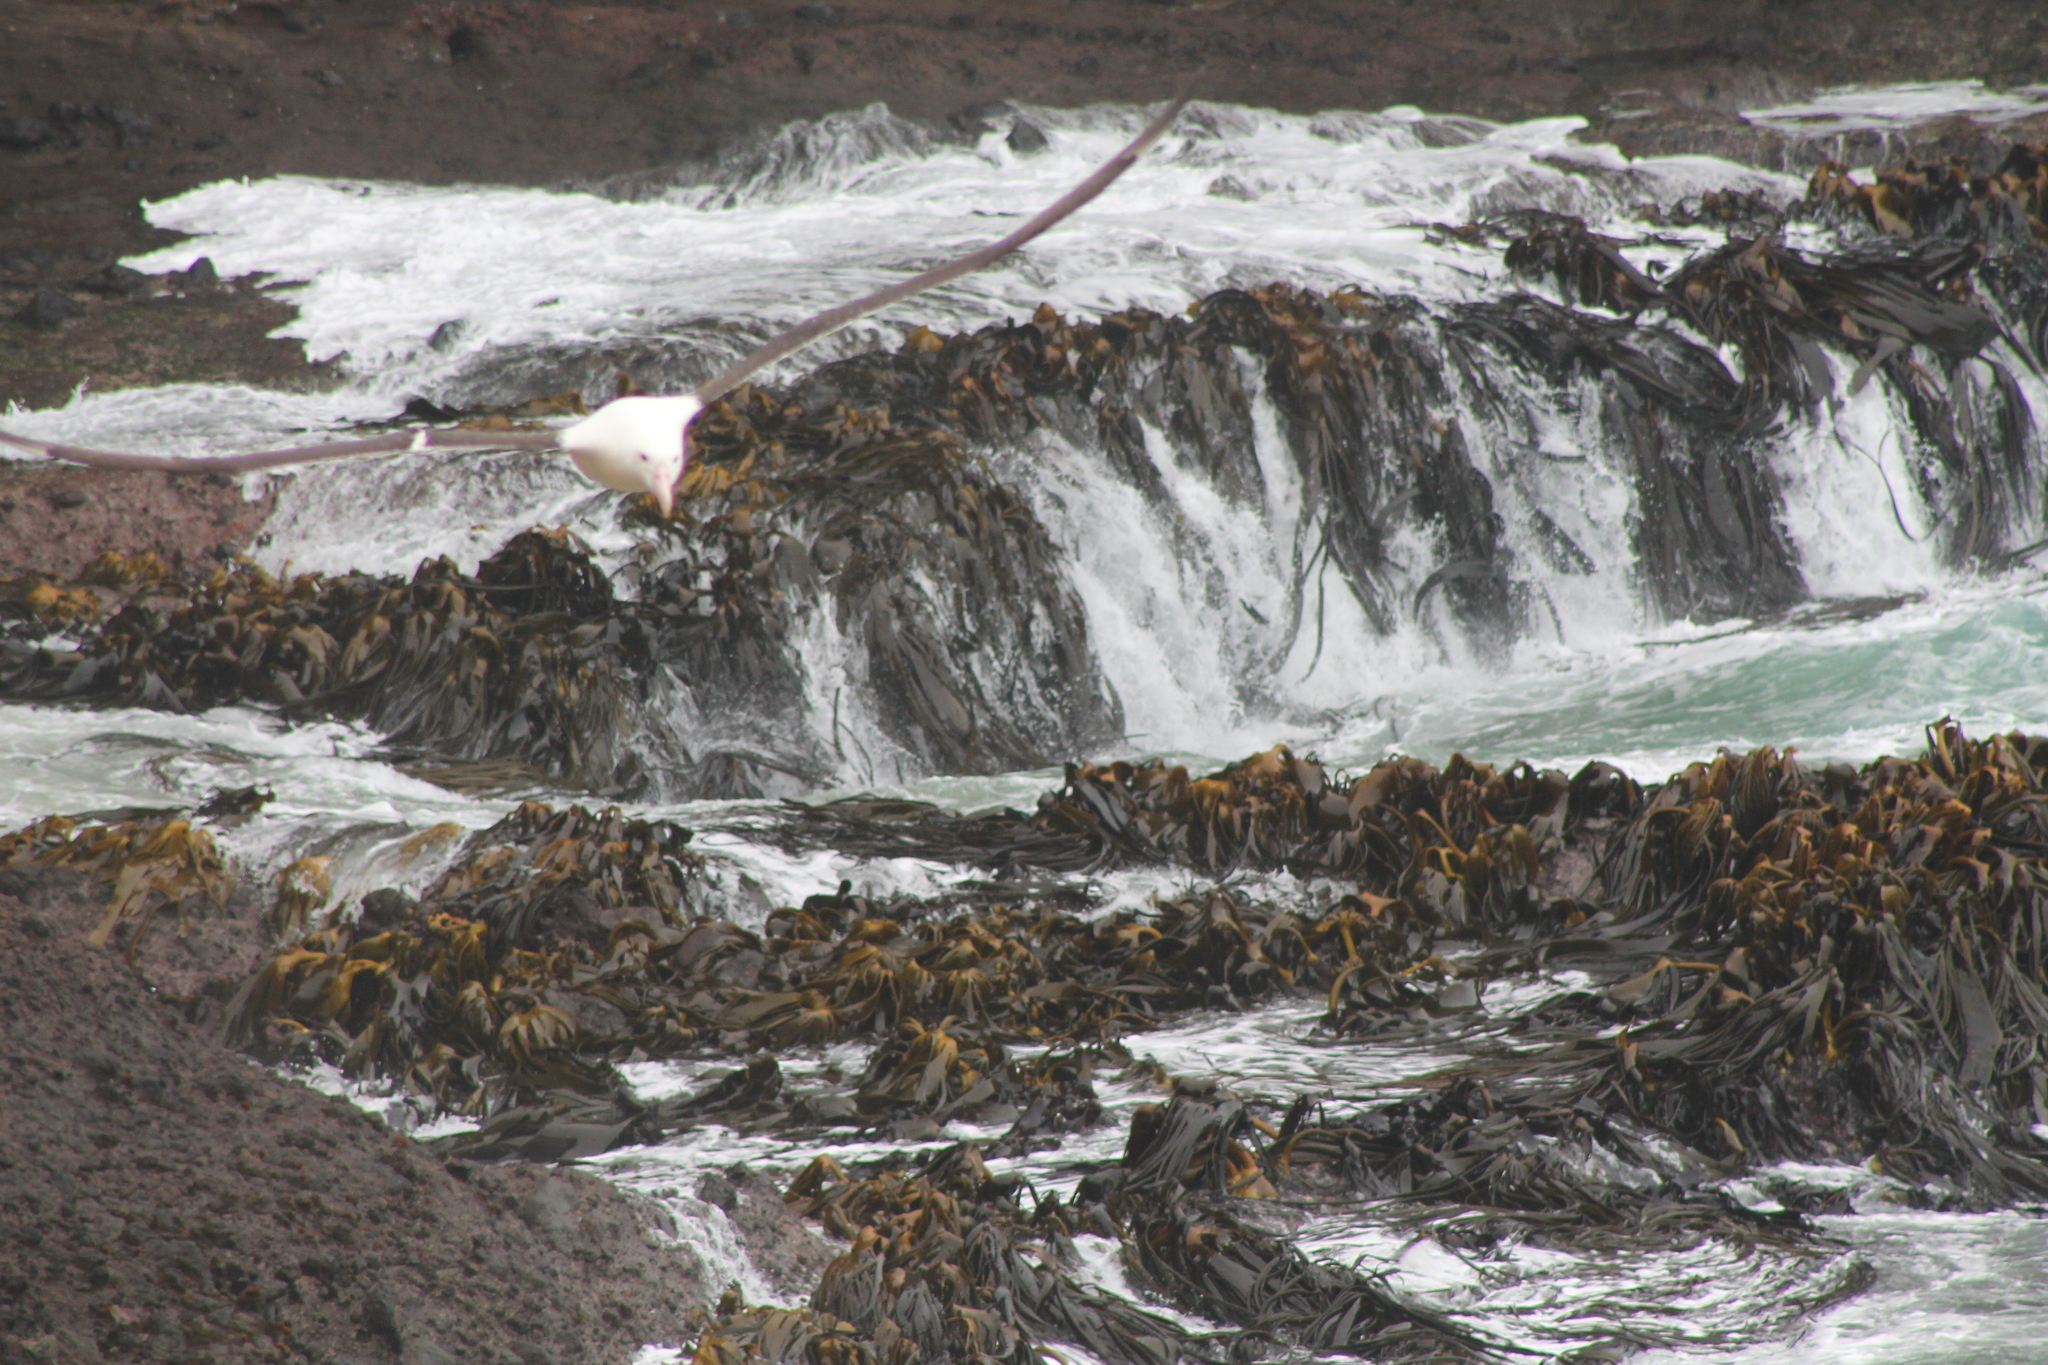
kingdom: Chromista
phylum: Ochrophyta
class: Phaeophyceae
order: Fucales
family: Durvillaeaceae
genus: Durvillaea
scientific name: Durvillaea antarctica
